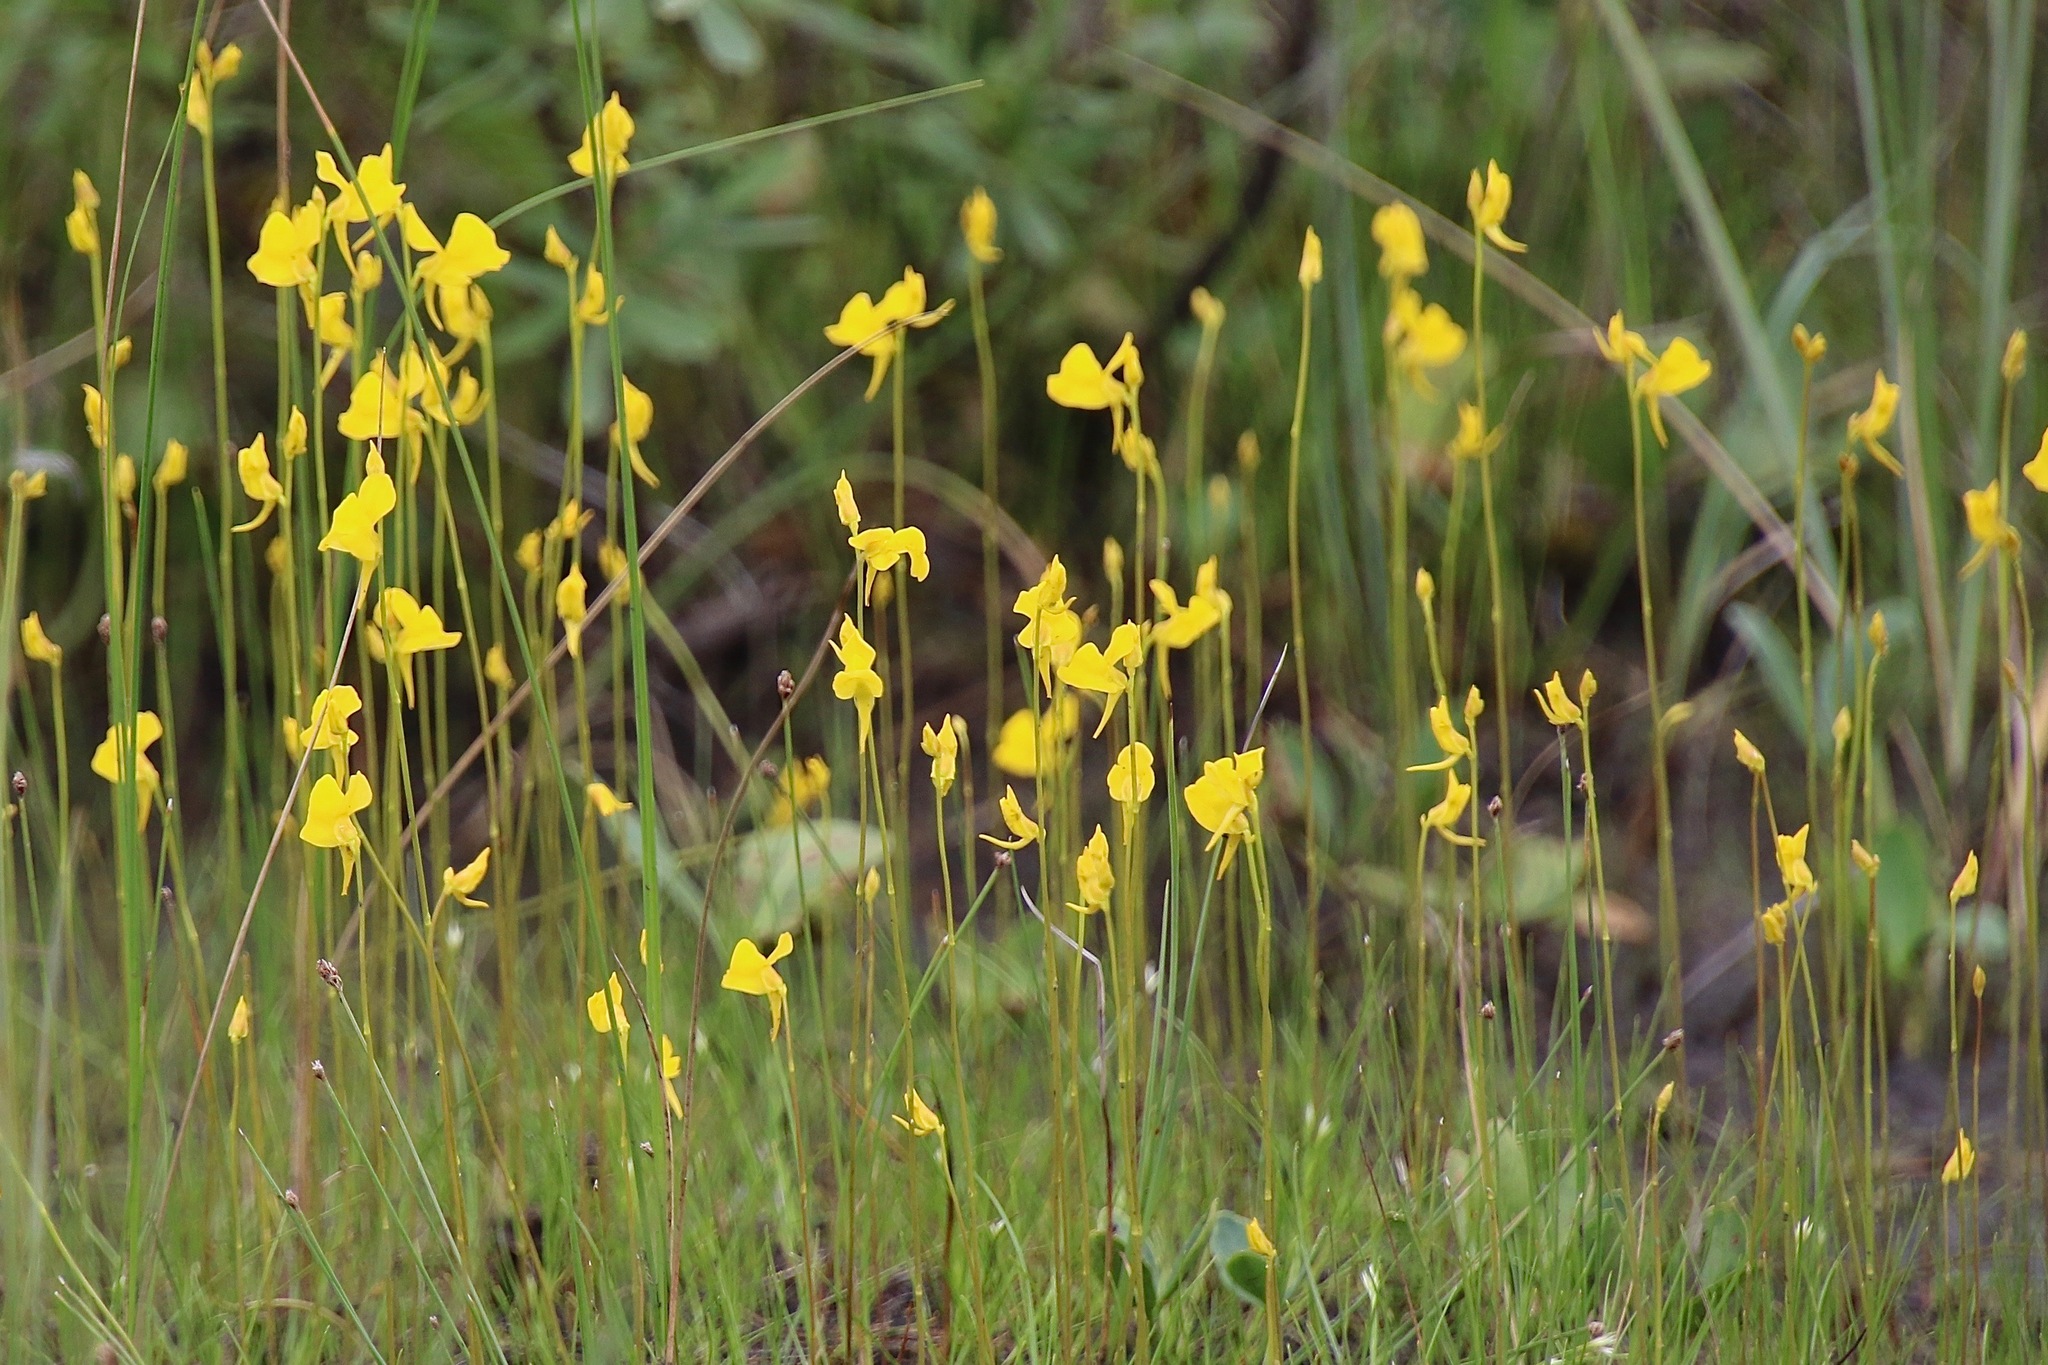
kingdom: Plantae
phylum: Tracheophyta
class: Magnoliopsida
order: Lamiales
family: Lentibulariaceae
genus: Utricularia
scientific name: Utricularia cornuta
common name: Horned bladderwort
